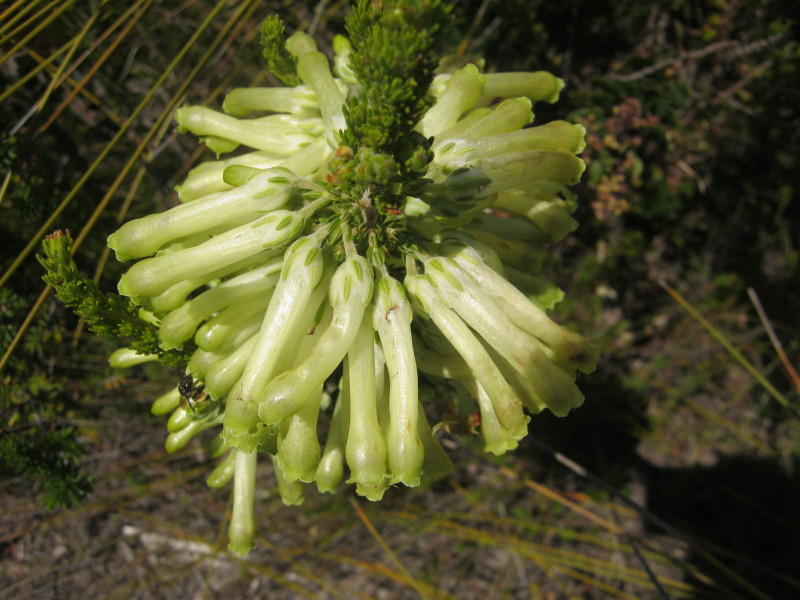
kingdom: Plantae
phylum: Tracheophyta
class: Magnoliopsida
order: Ericales
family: Ericaceae
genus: Erica
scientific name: Erica discolor
